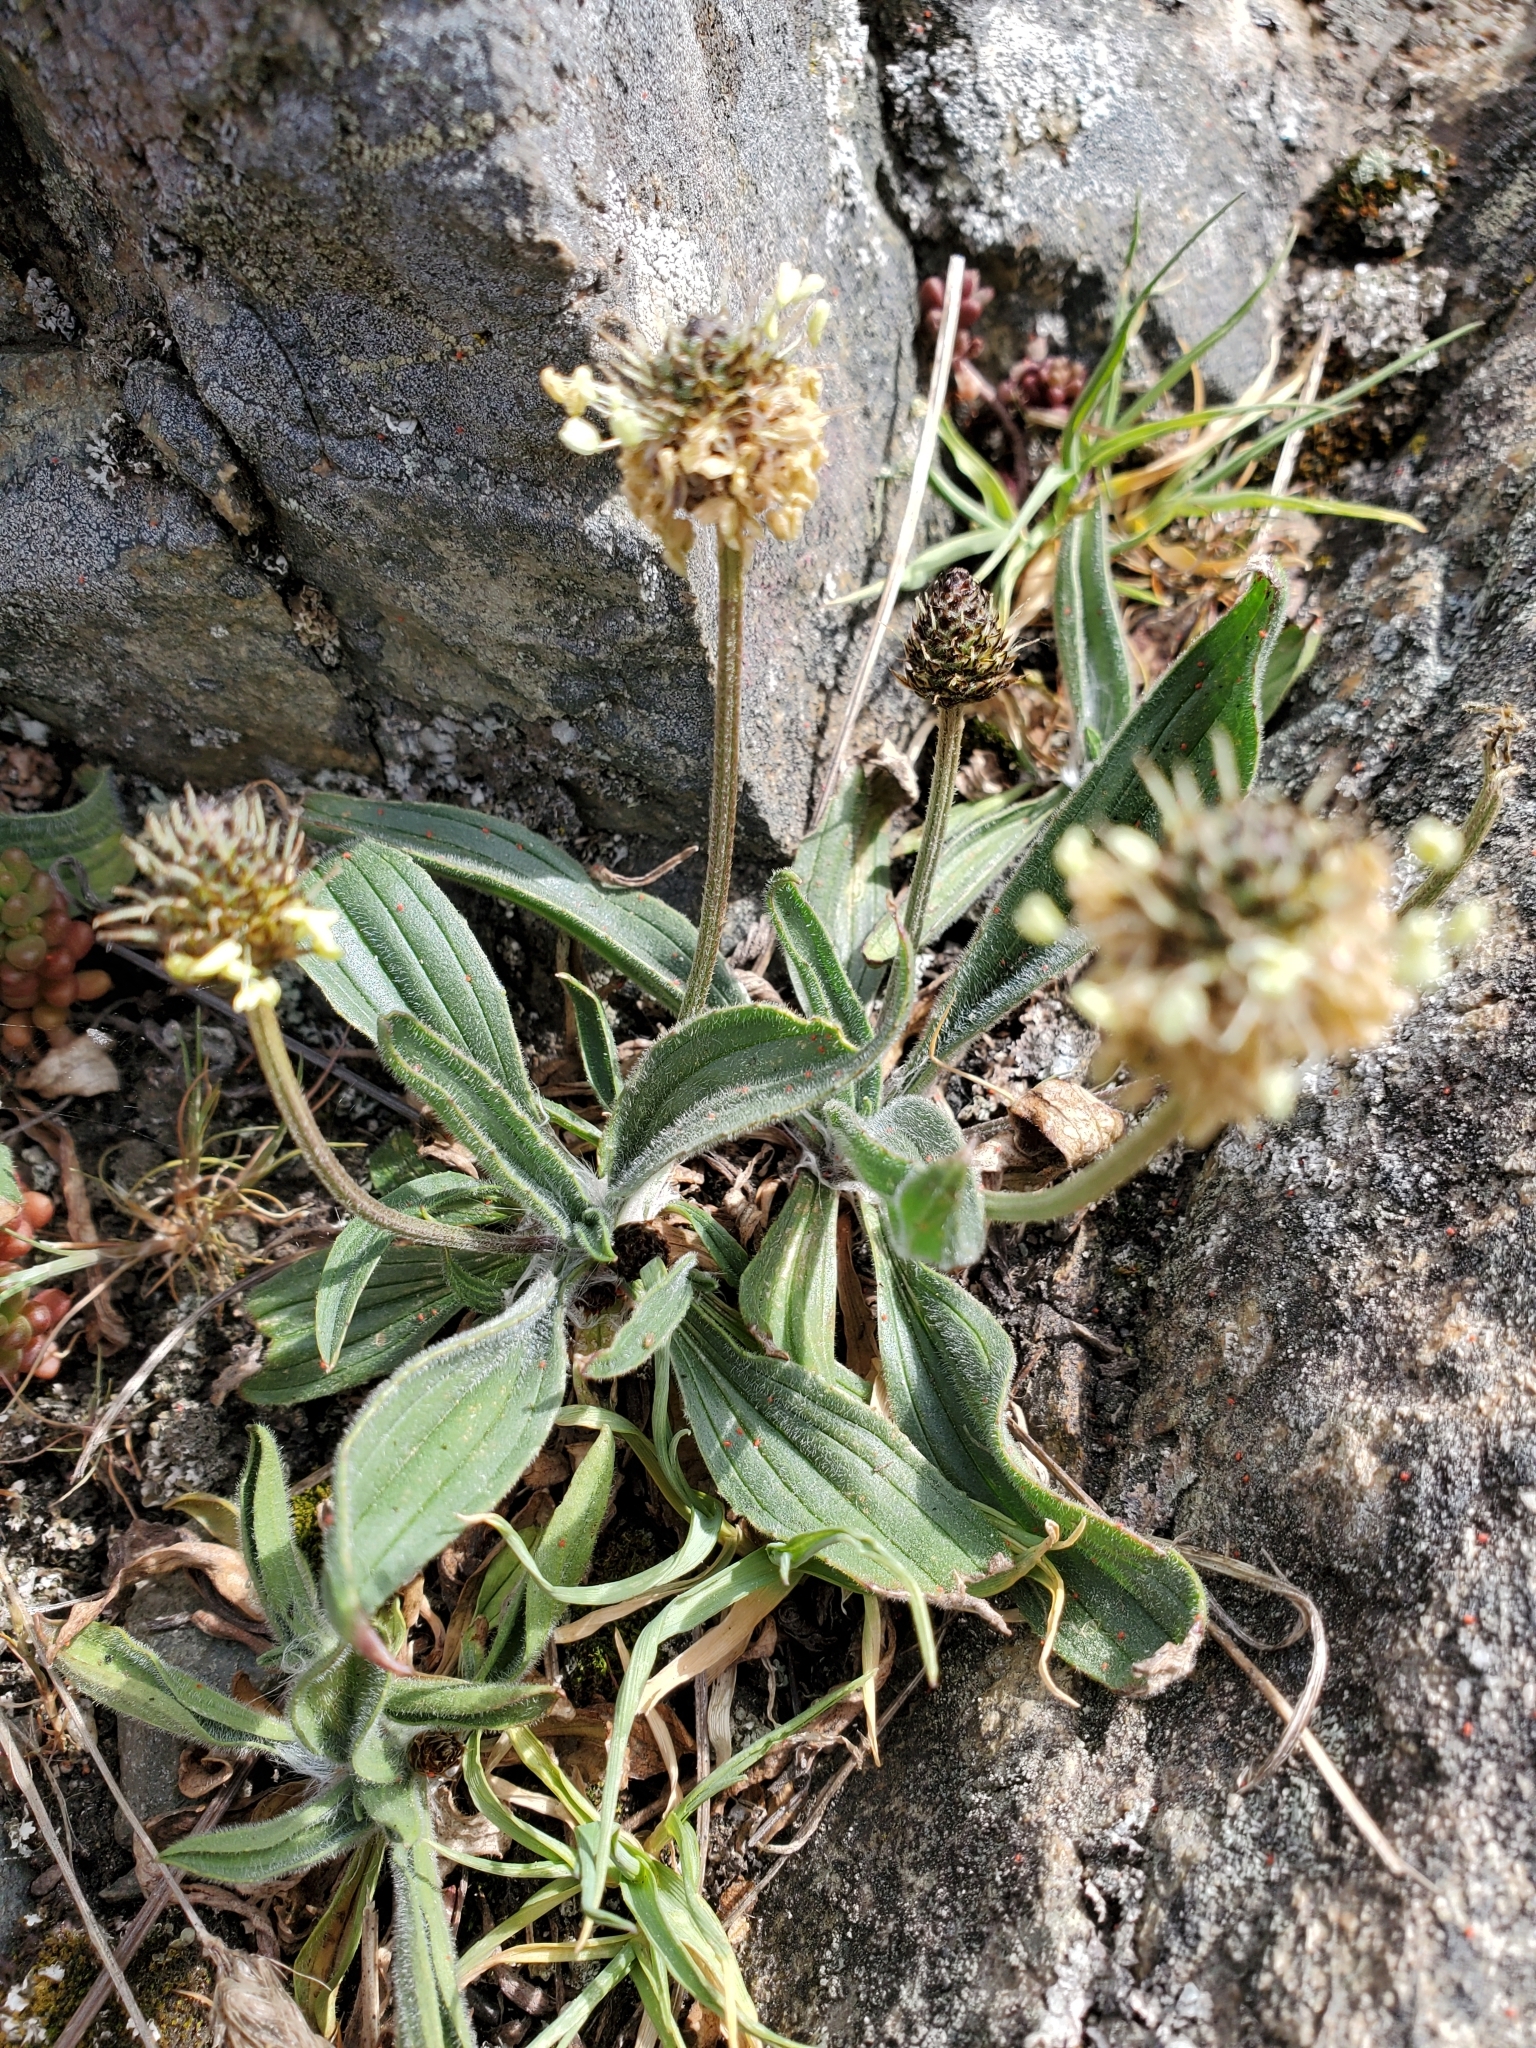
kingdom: Plantae
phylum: Tracheophyta
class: Magnoliopsida
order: Lamiales
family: Plantaginaceae
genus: Plantago
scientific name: Plantago lanceolata
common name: Ribwort plantain
